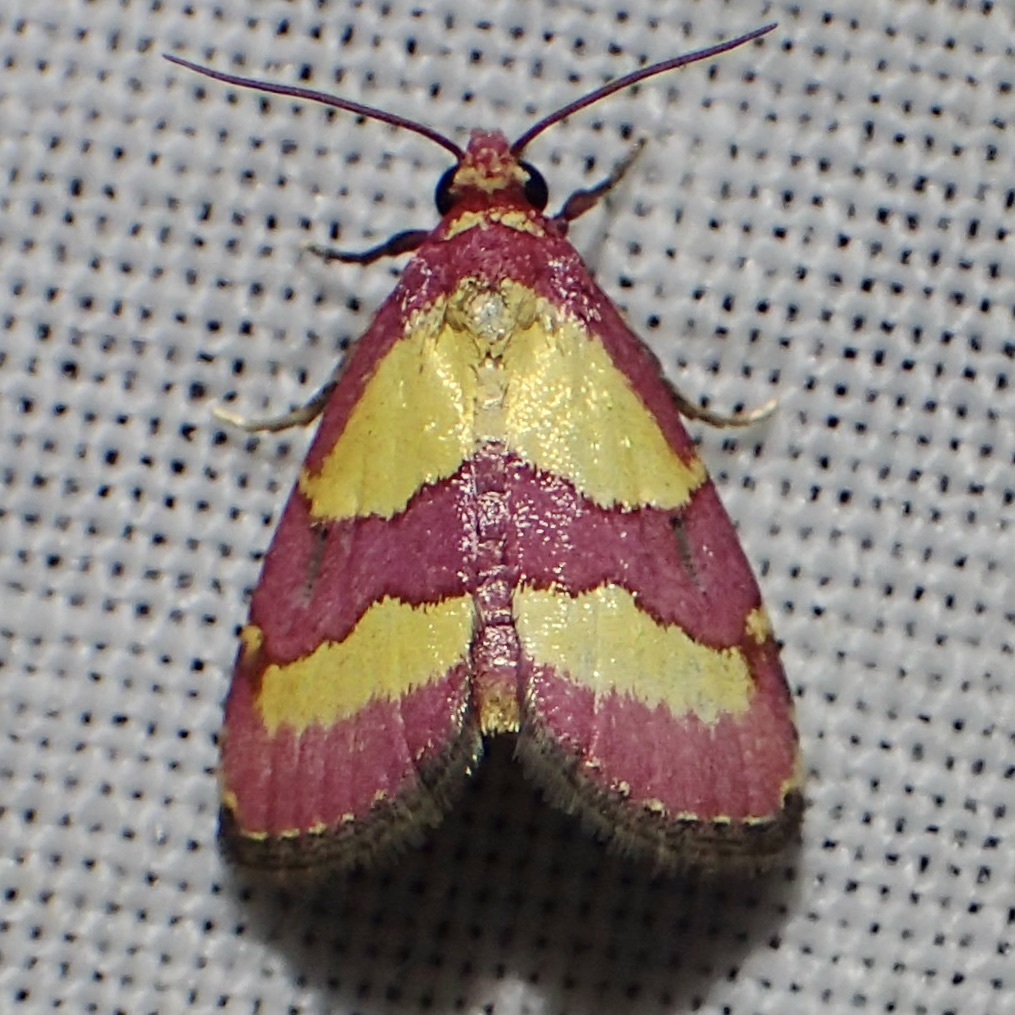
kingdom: Animalia
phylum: Arthropoda
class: Insecta
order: Lepidoptera
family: Noctuidae
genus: Phoenicophanta
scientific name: Phoenicophanta bicolor
